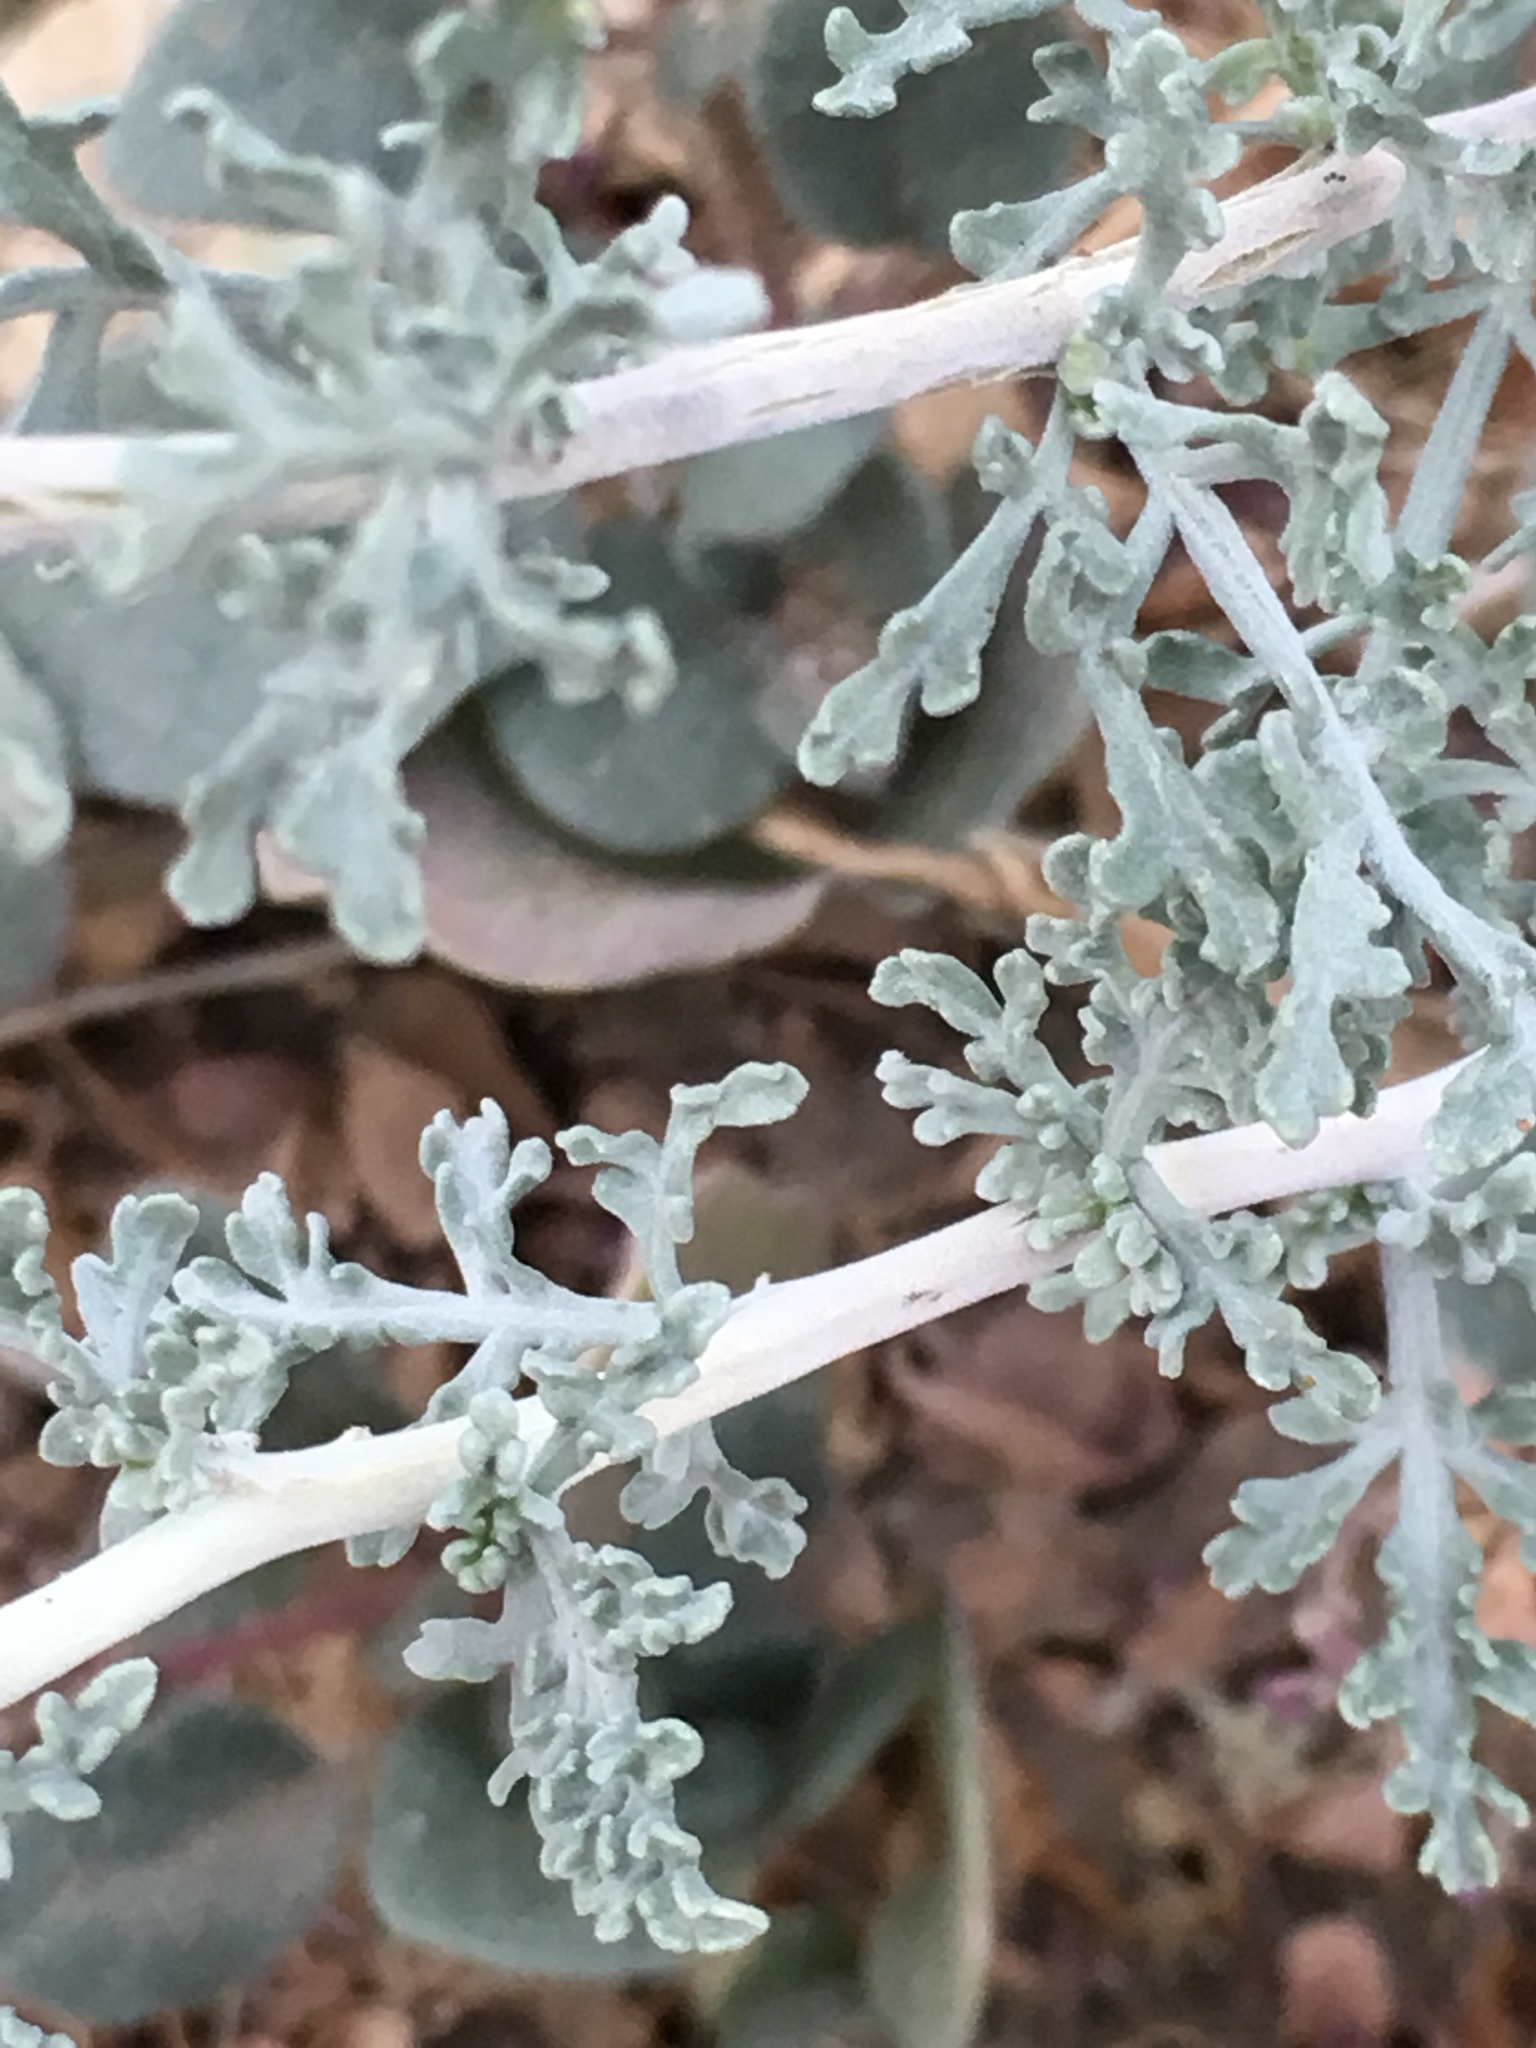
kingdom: Plantae
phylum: Tracheophyta
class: Magnoliopsida
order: Asterales
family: Asteraceae
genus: Ambrosia
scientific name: Ambrosia dumosa
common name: Bur-sage
